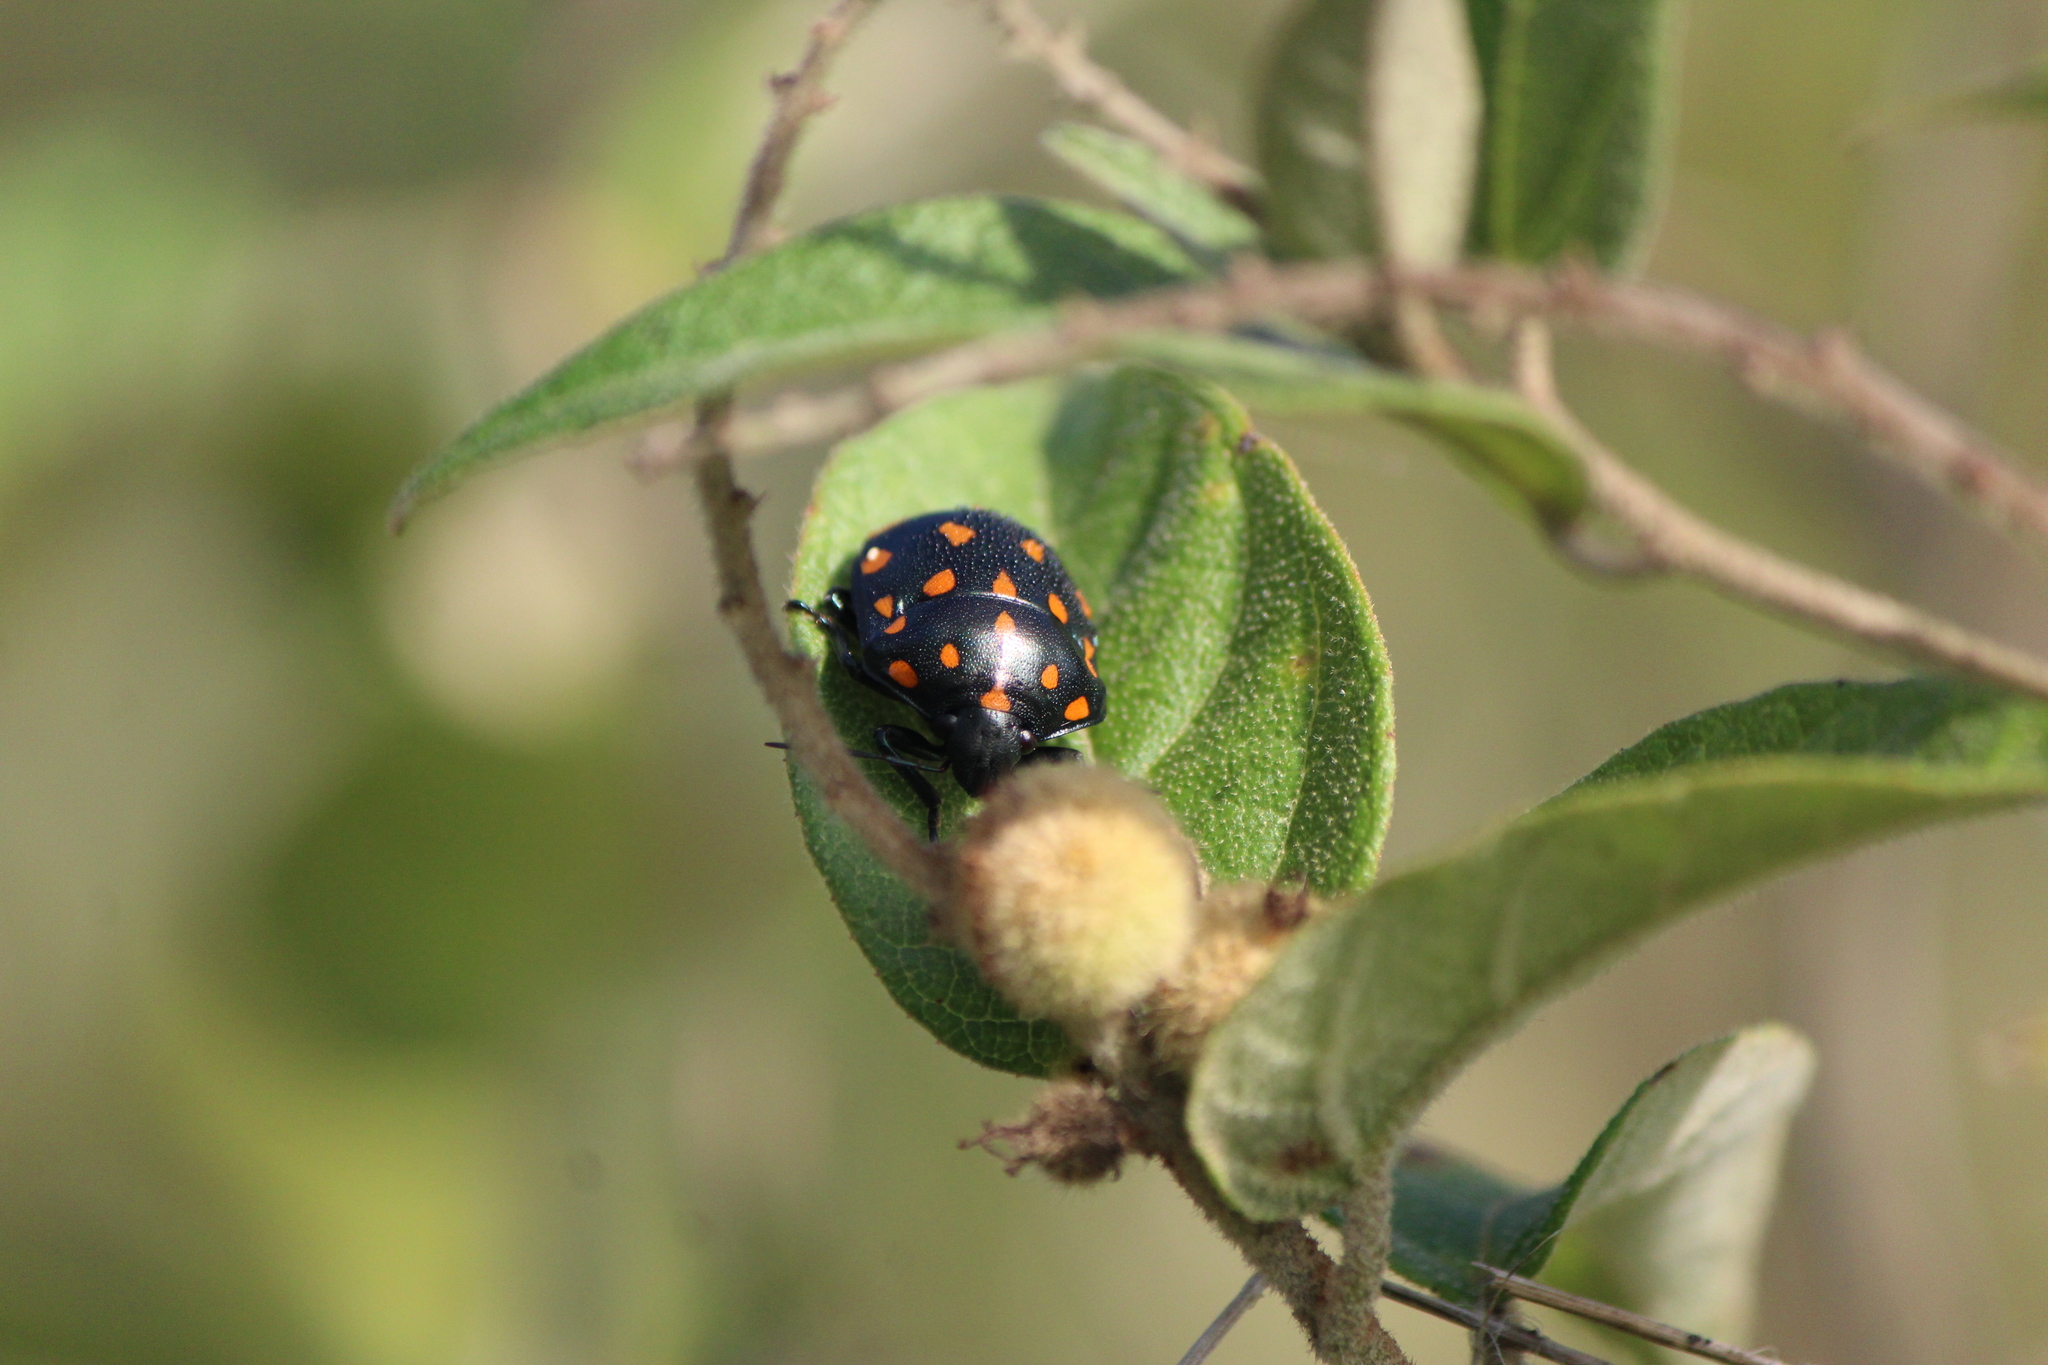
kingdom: Animalia
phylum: Arthropoda
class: Insecta
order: Hemiptera
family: Scutelleridae
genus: Pachycoris
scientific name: Pachycoris klugii
